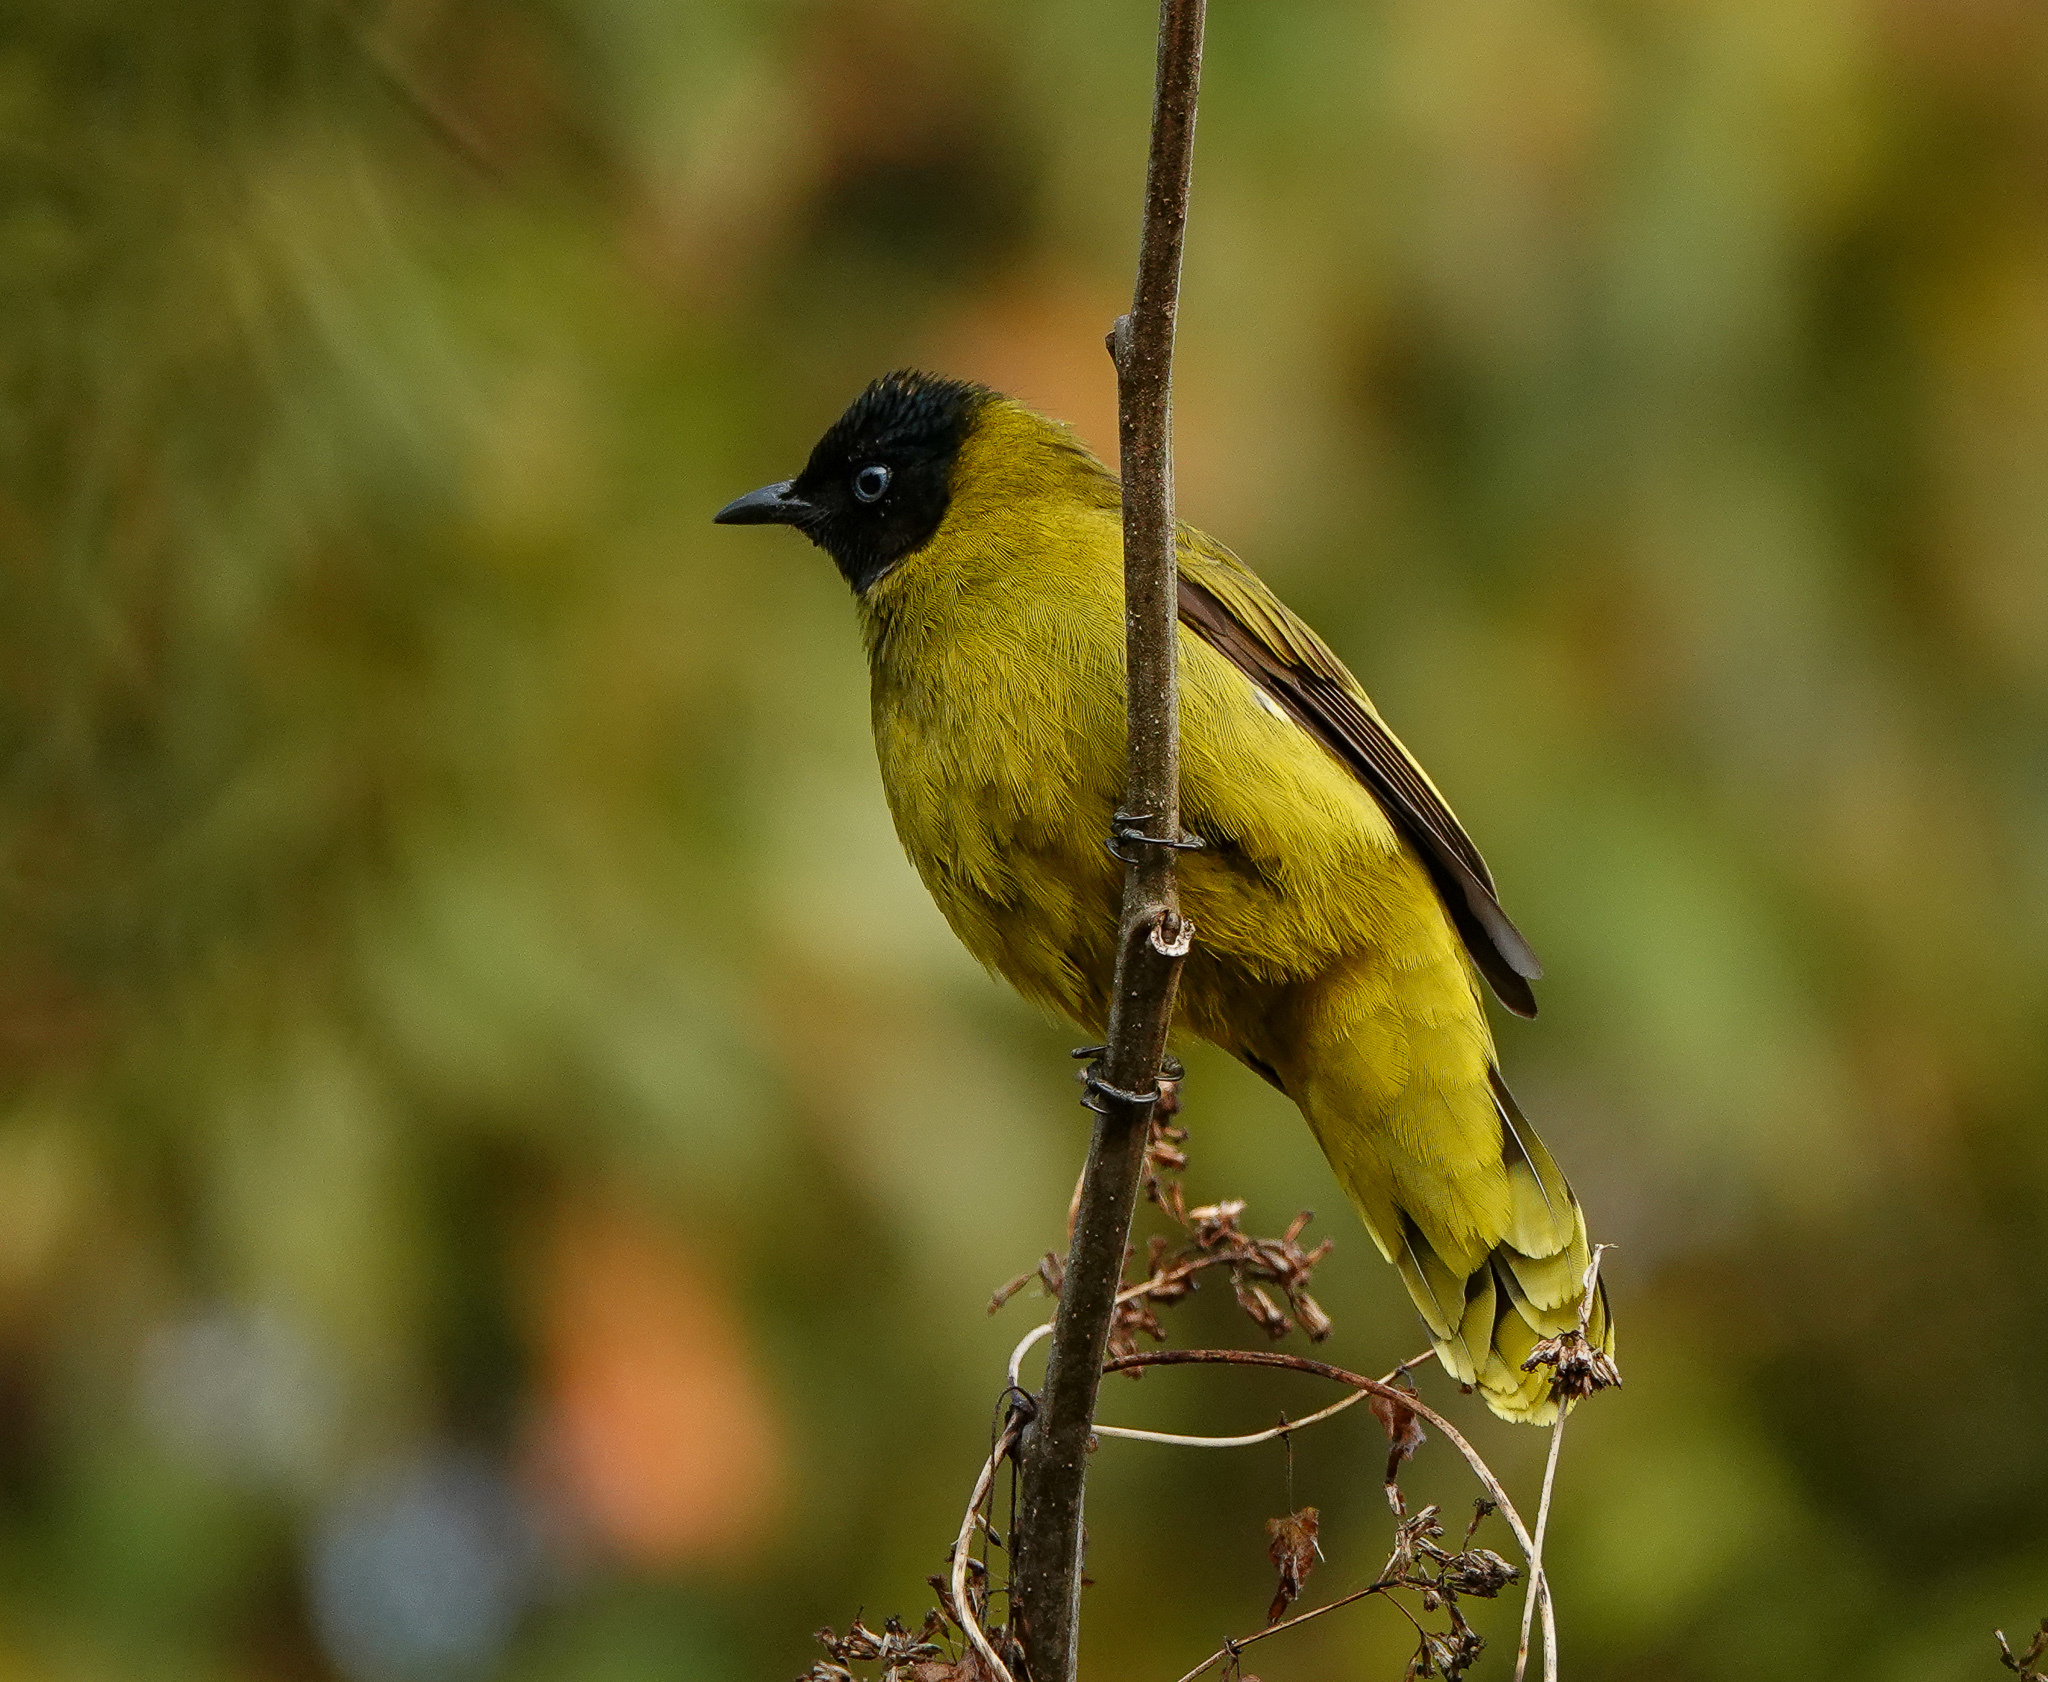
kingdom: Animalia
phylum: Chordata
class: Aves
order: Passeriformes
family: Pycnonotidae
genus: Microtarsus
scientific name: Microtarsus
